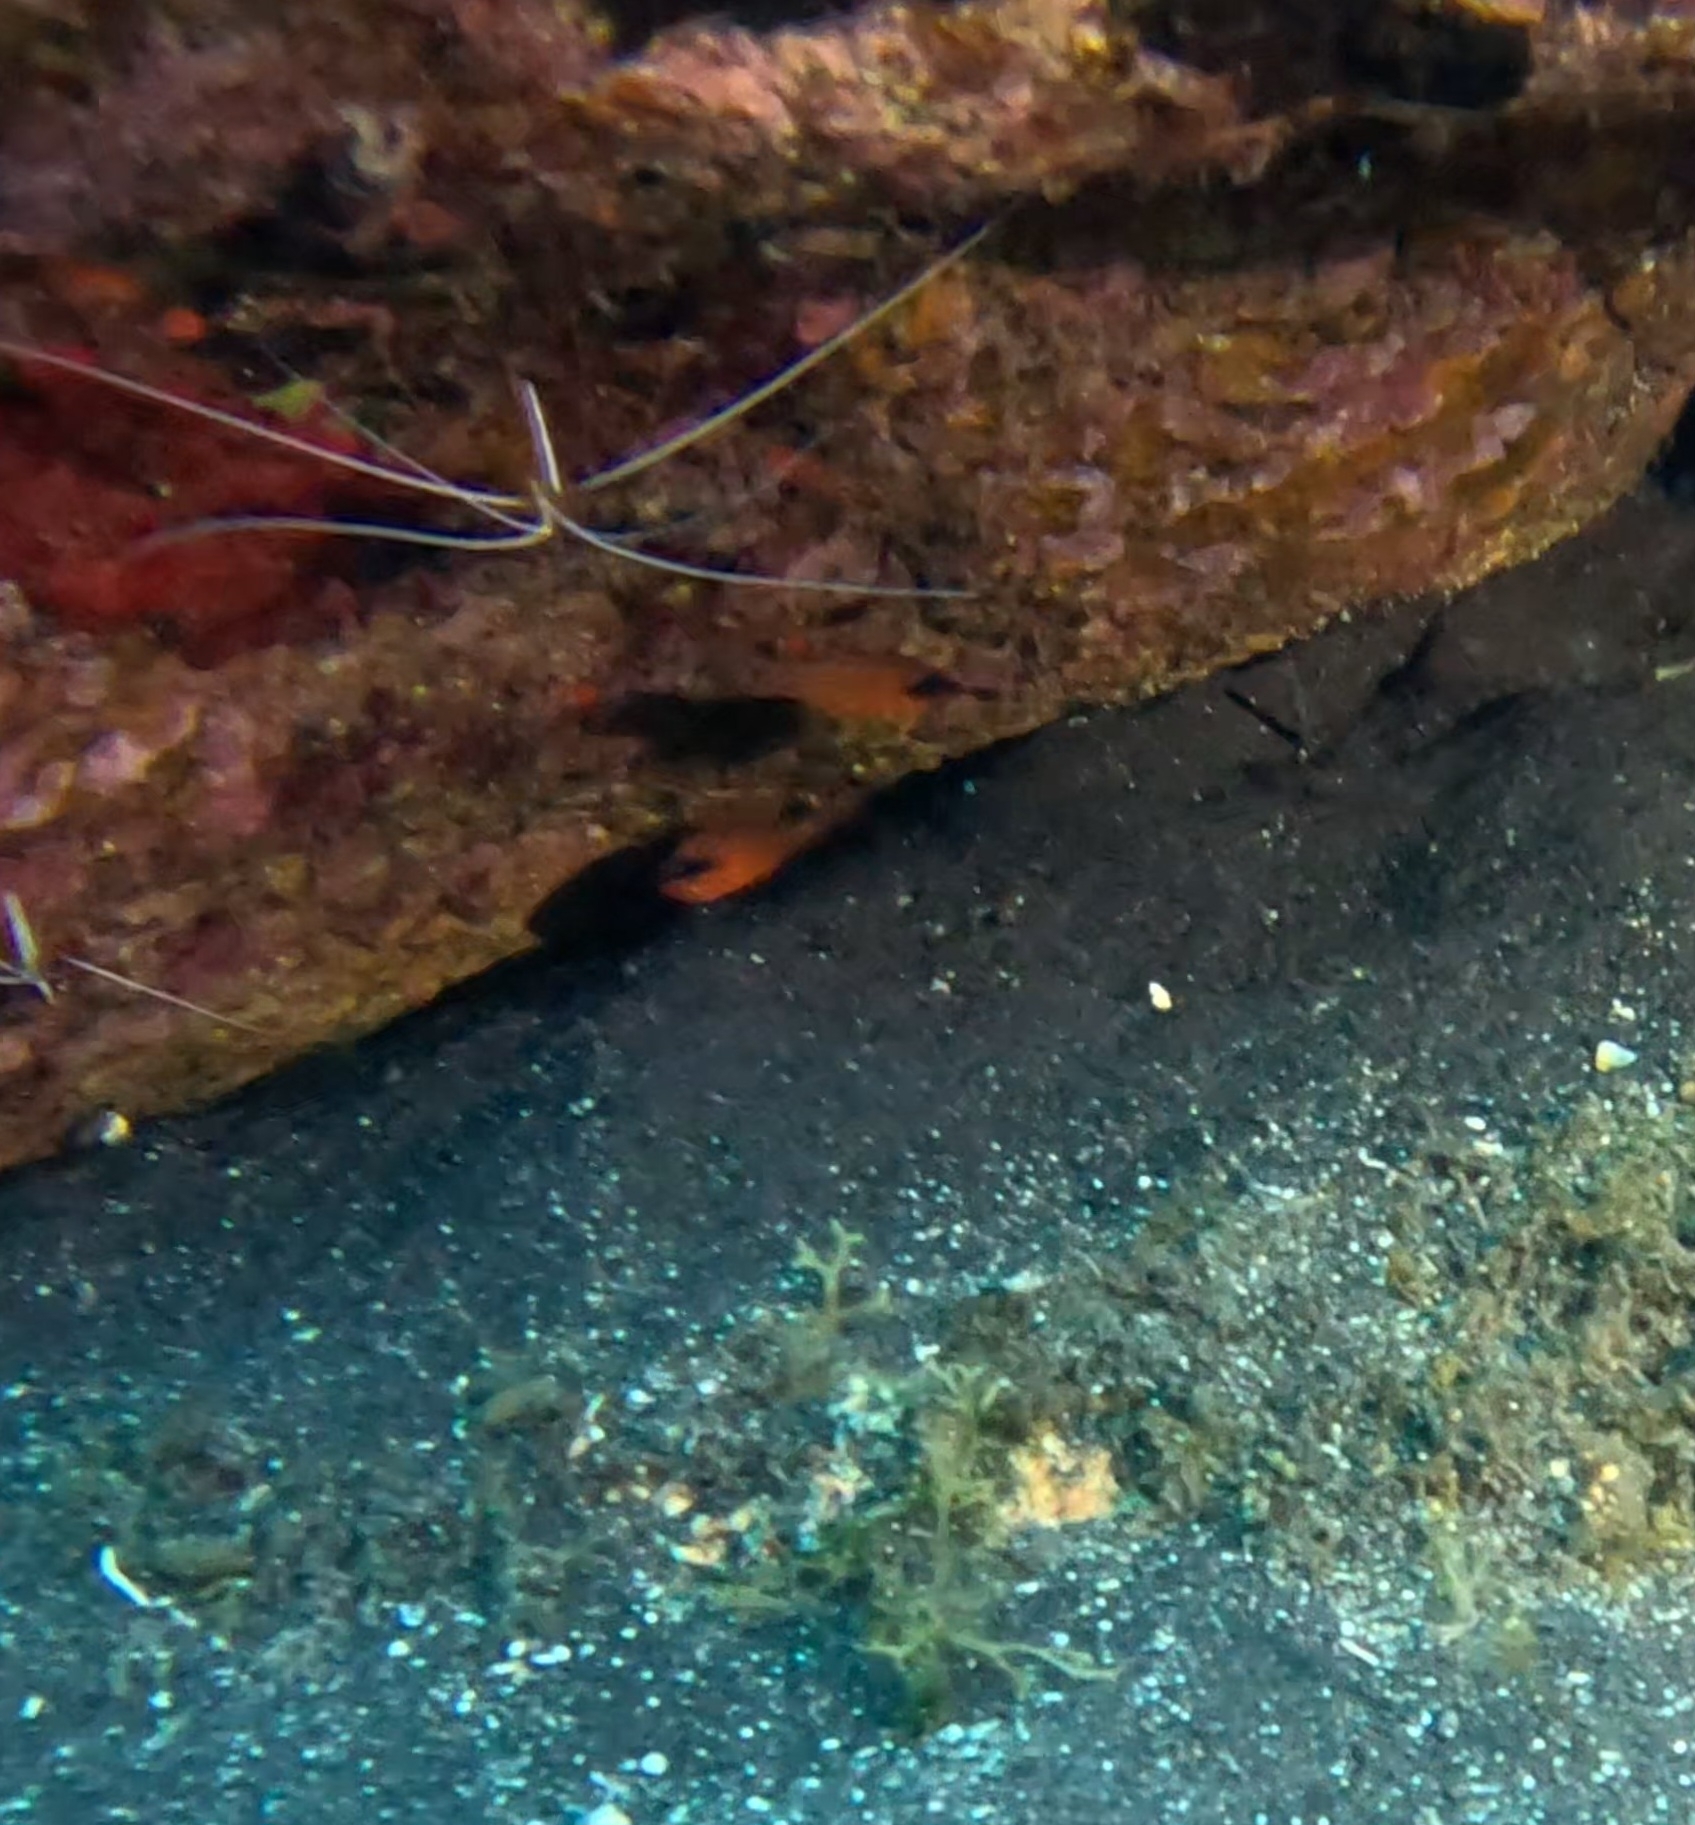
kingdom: Animalia
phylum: Chordata
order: Perciformes
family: Apogonidae
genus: Apogon
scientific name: Apogon imberbis
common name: Cardinal fish
